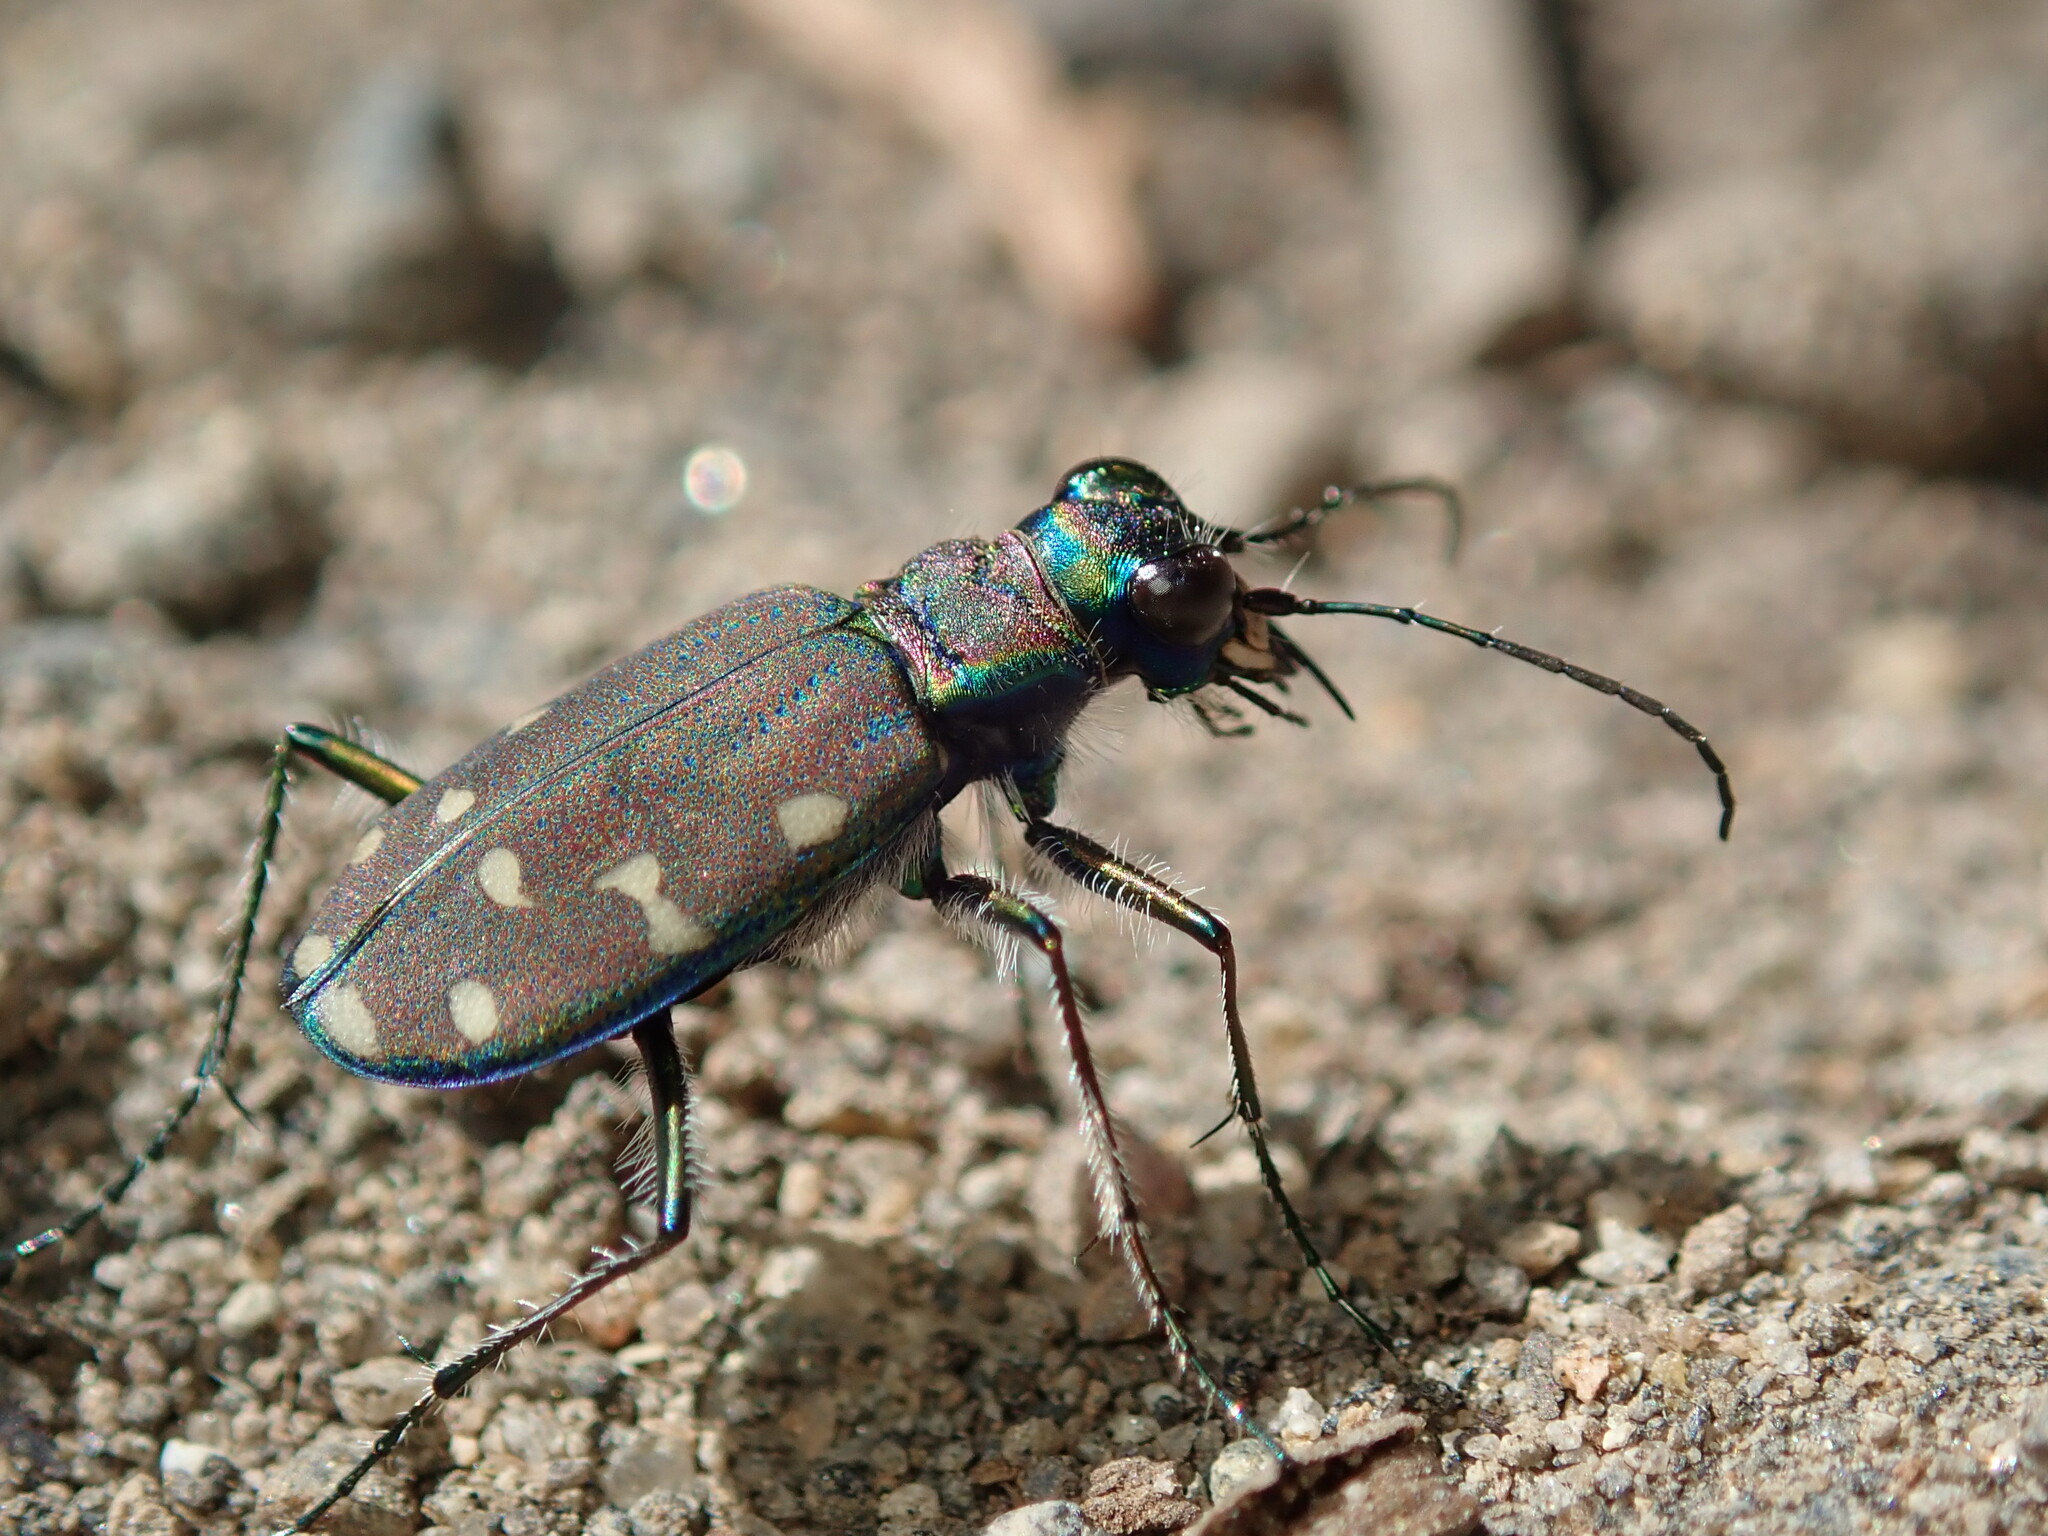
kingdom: Animalia
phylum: Arthropoda
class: Insecta
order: Coleoptera
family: Carabidae
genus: Cicindela
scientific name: Cicindela oregona
